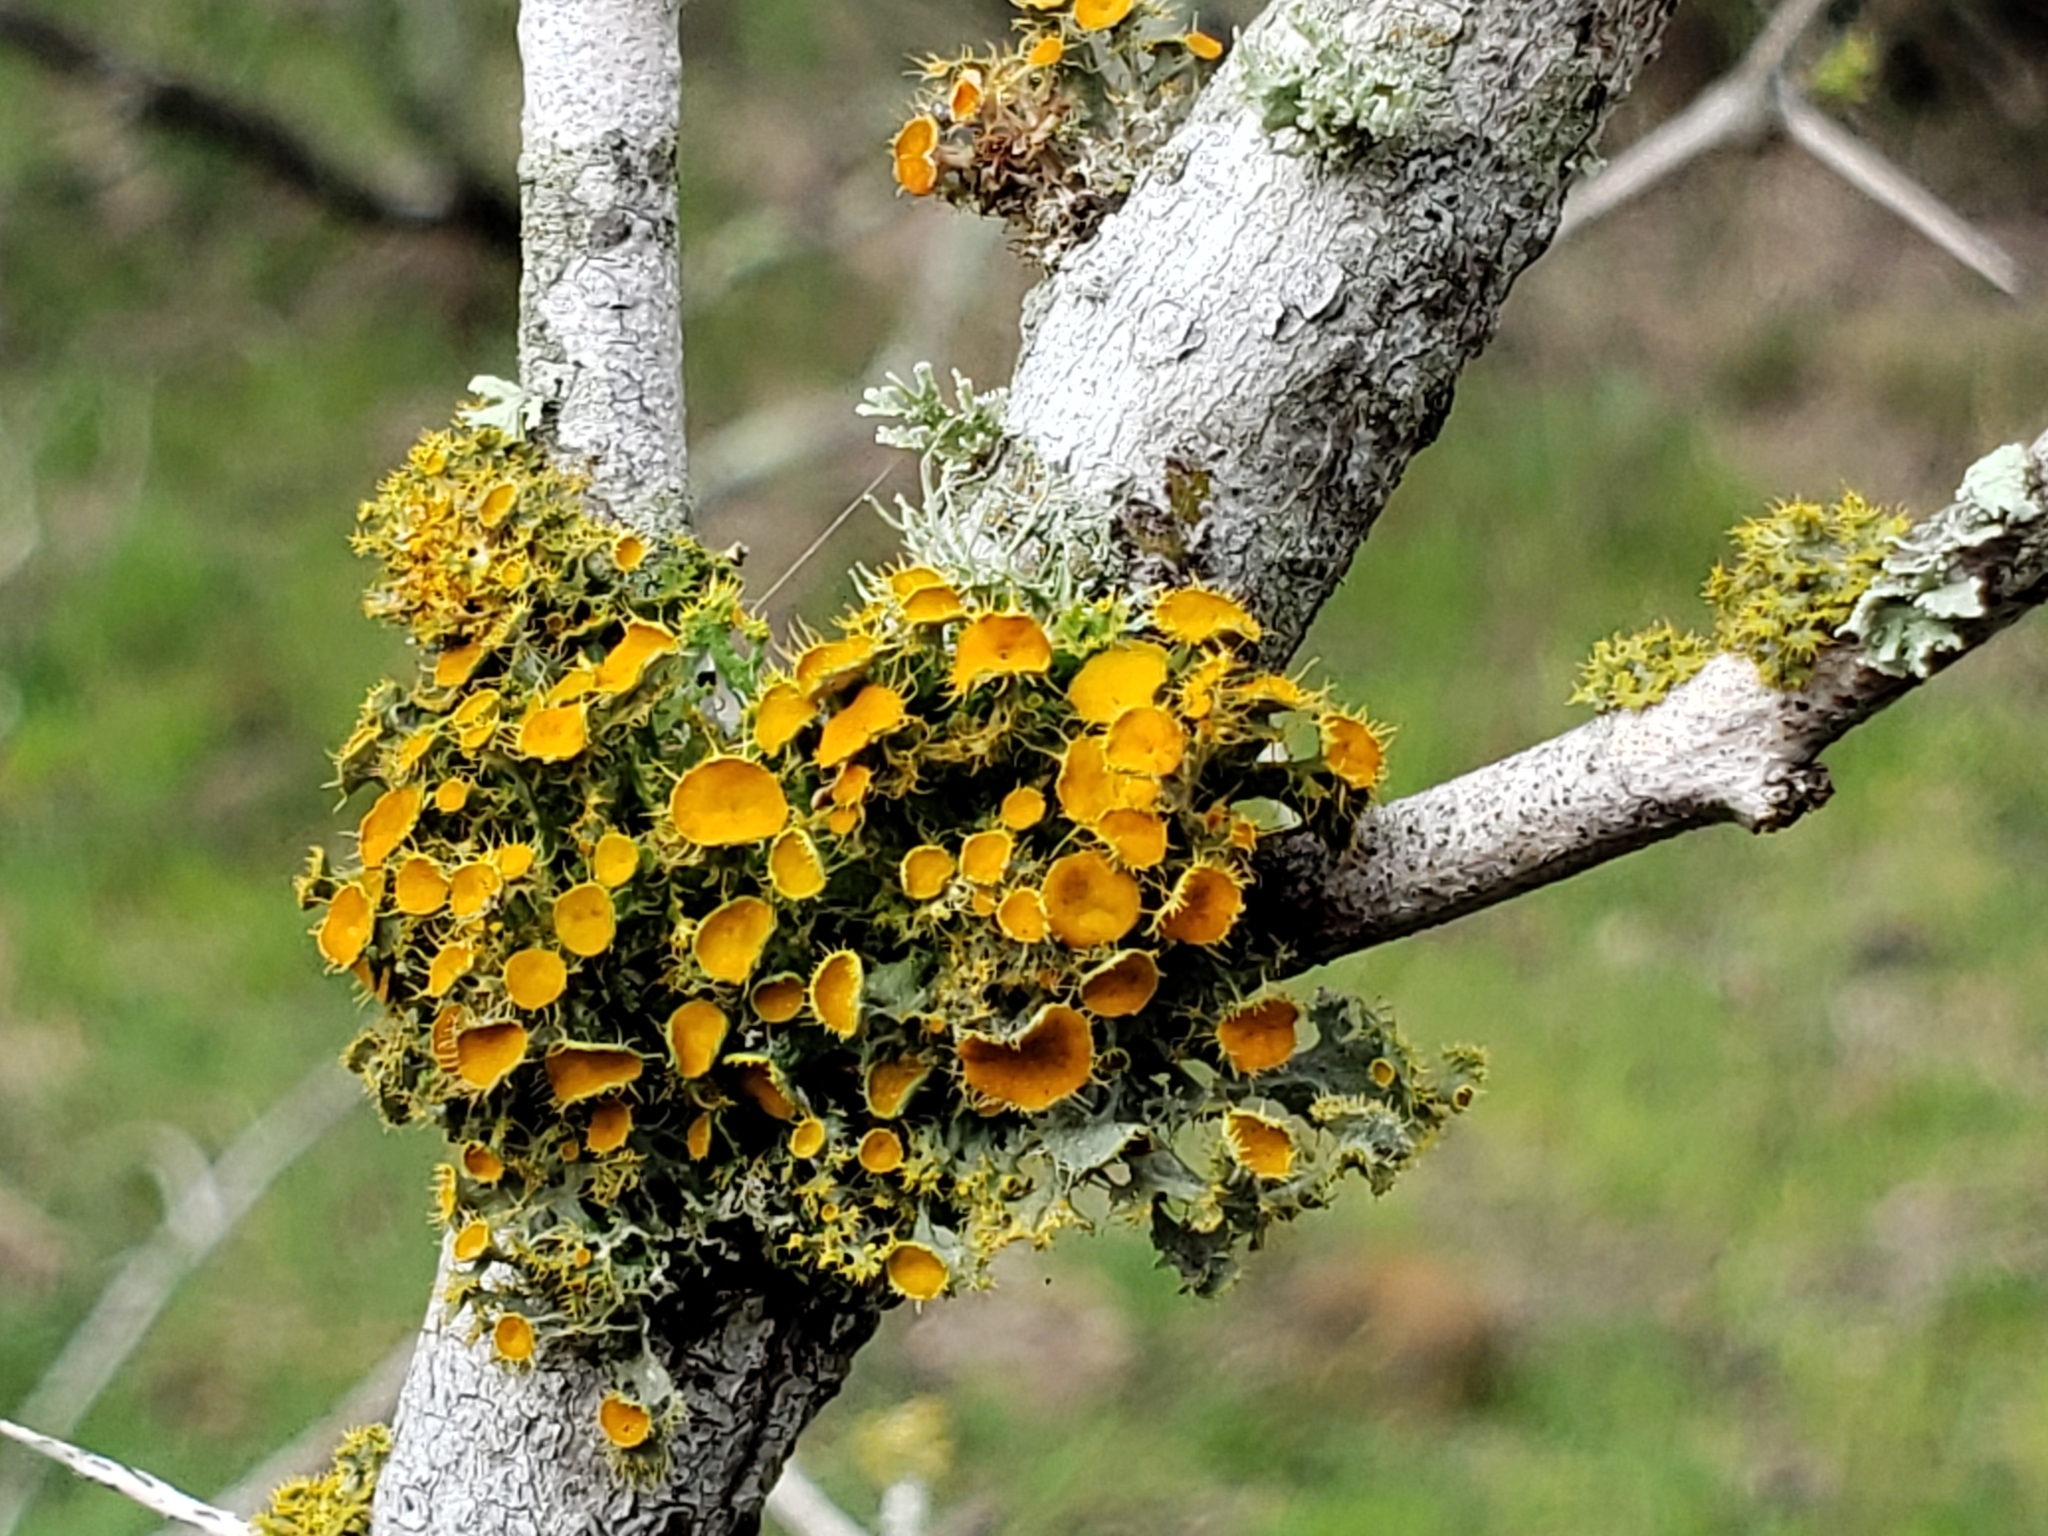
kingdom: Fungi
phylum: Ascomycota
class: Lecanoromycetes
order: Teloschistales
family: Teloschistaceae
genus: Niorma
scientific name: Niorma chrysophthalma
